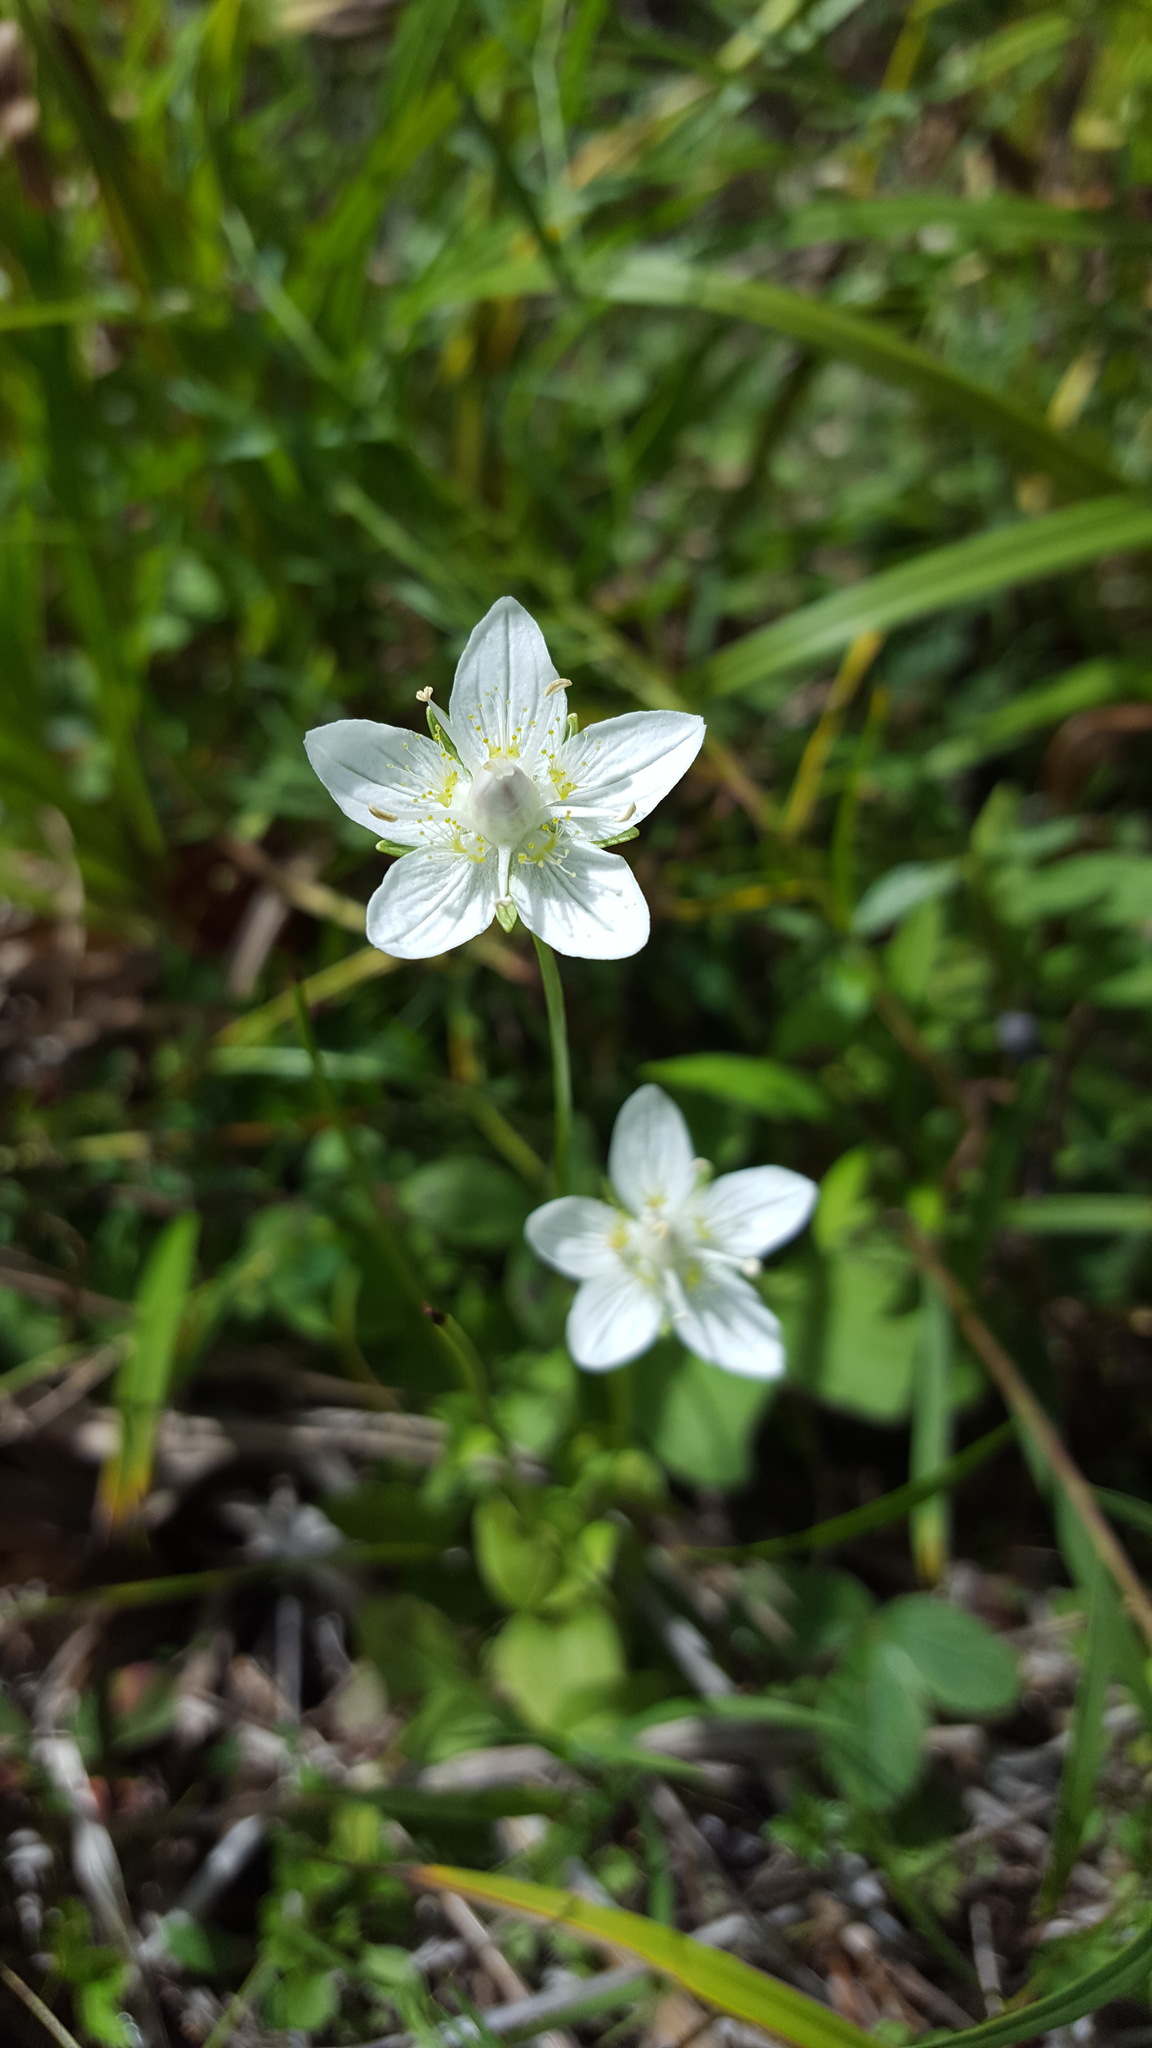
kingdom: Plantae
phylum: Tracheophyta
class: Magnoliopsida
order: Celastrales
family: Parnassiaceae
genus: Parnassia
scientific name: Parnassia palustris
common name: Grass-of-parnassus
